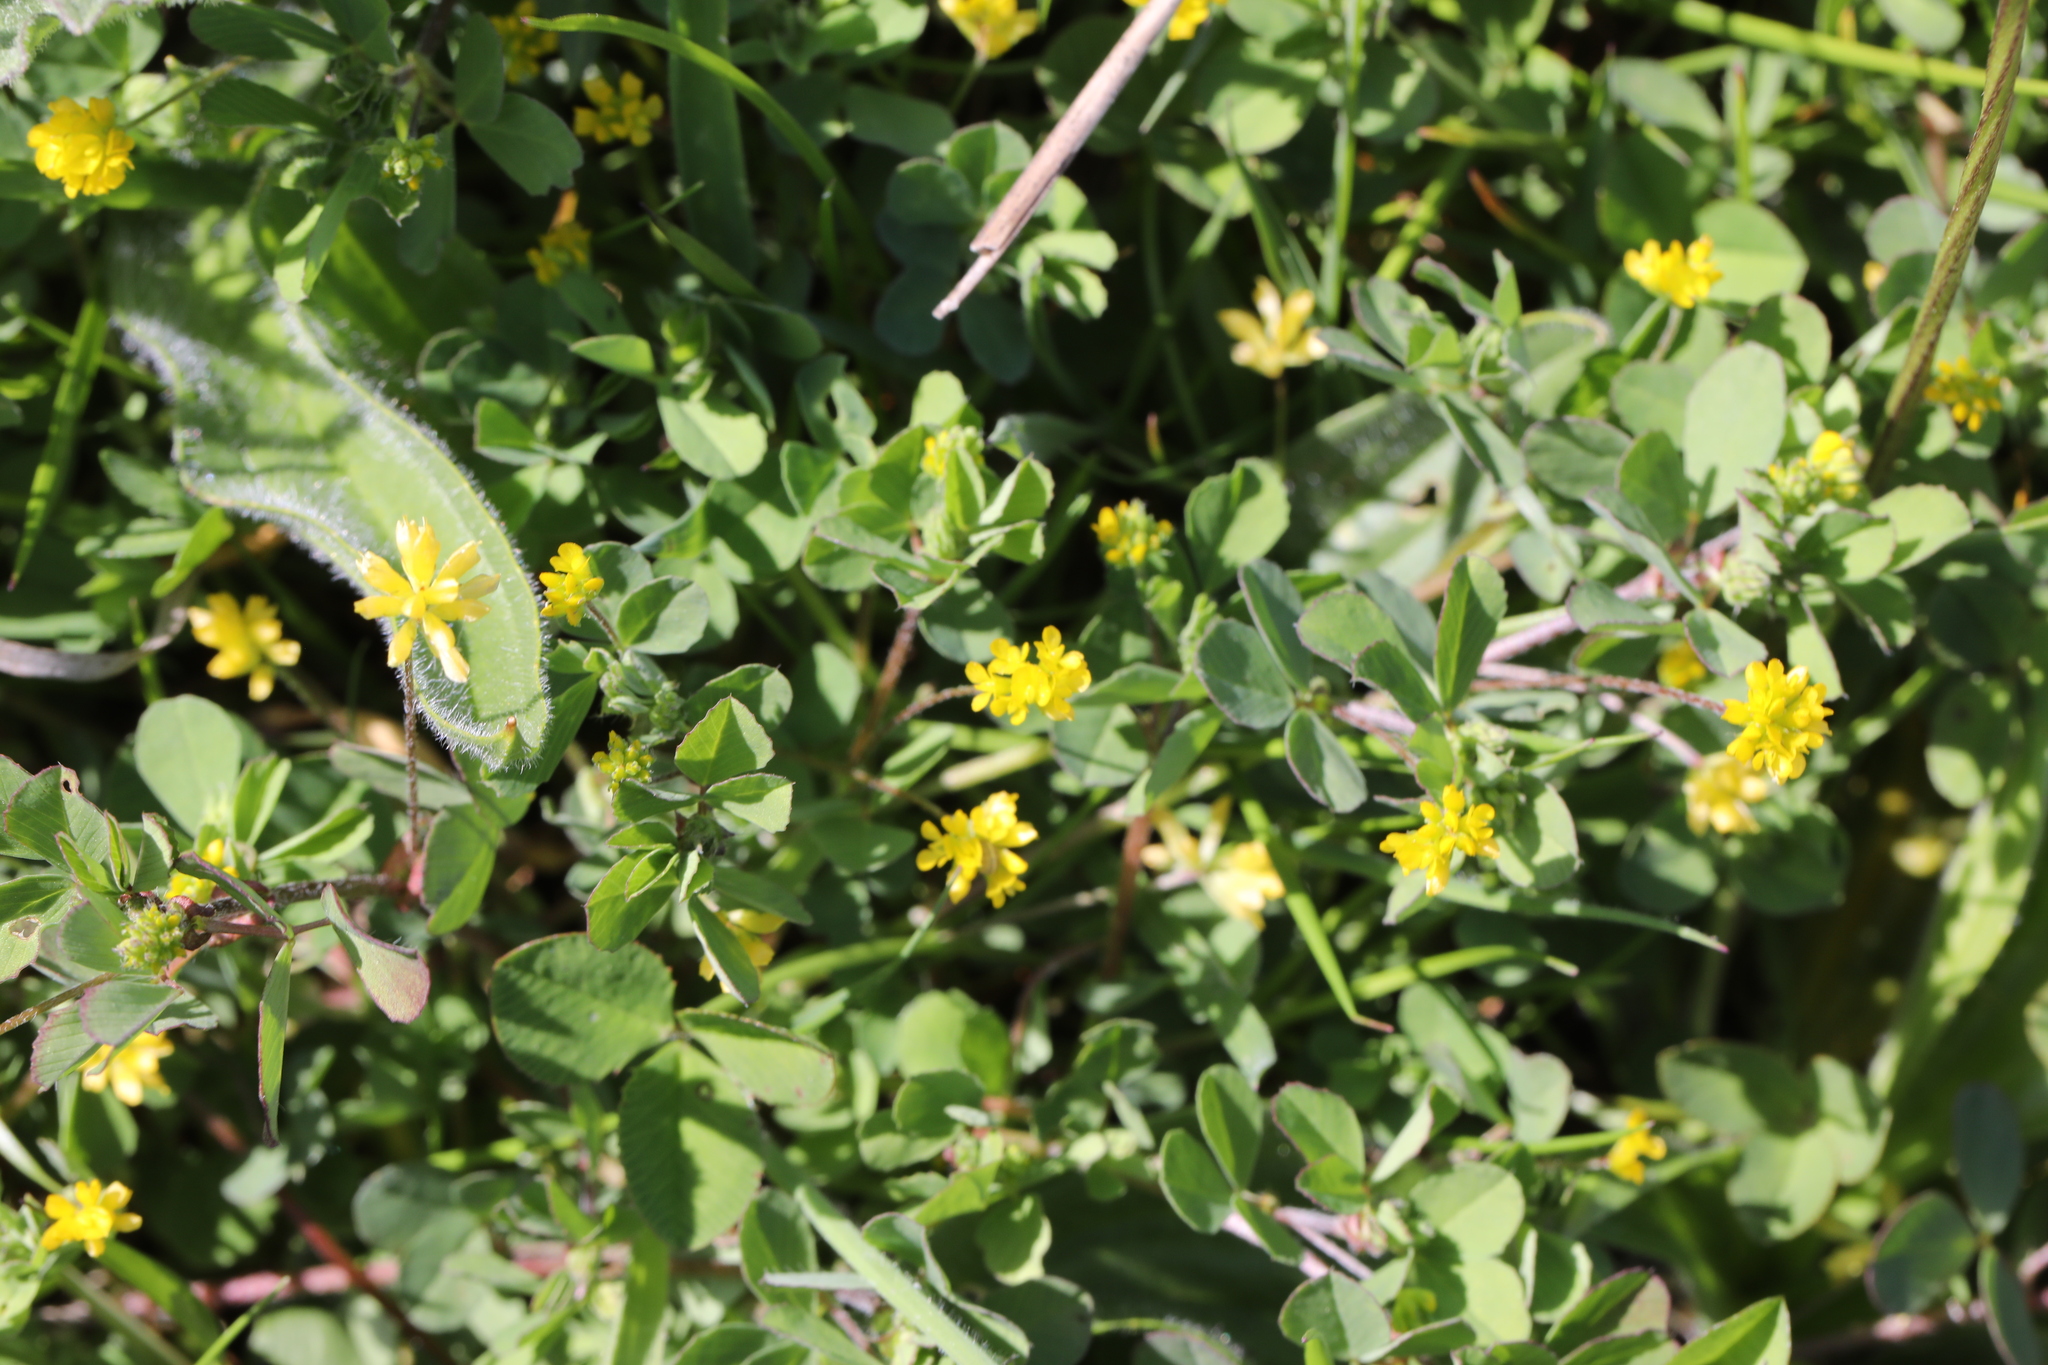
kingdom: Plantae
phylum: Tracheophyta
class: Magnoliopsida
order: Fabales
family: Fabaceae
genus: Trifolium
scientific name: Trifolium dubium
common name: Suckling clover
